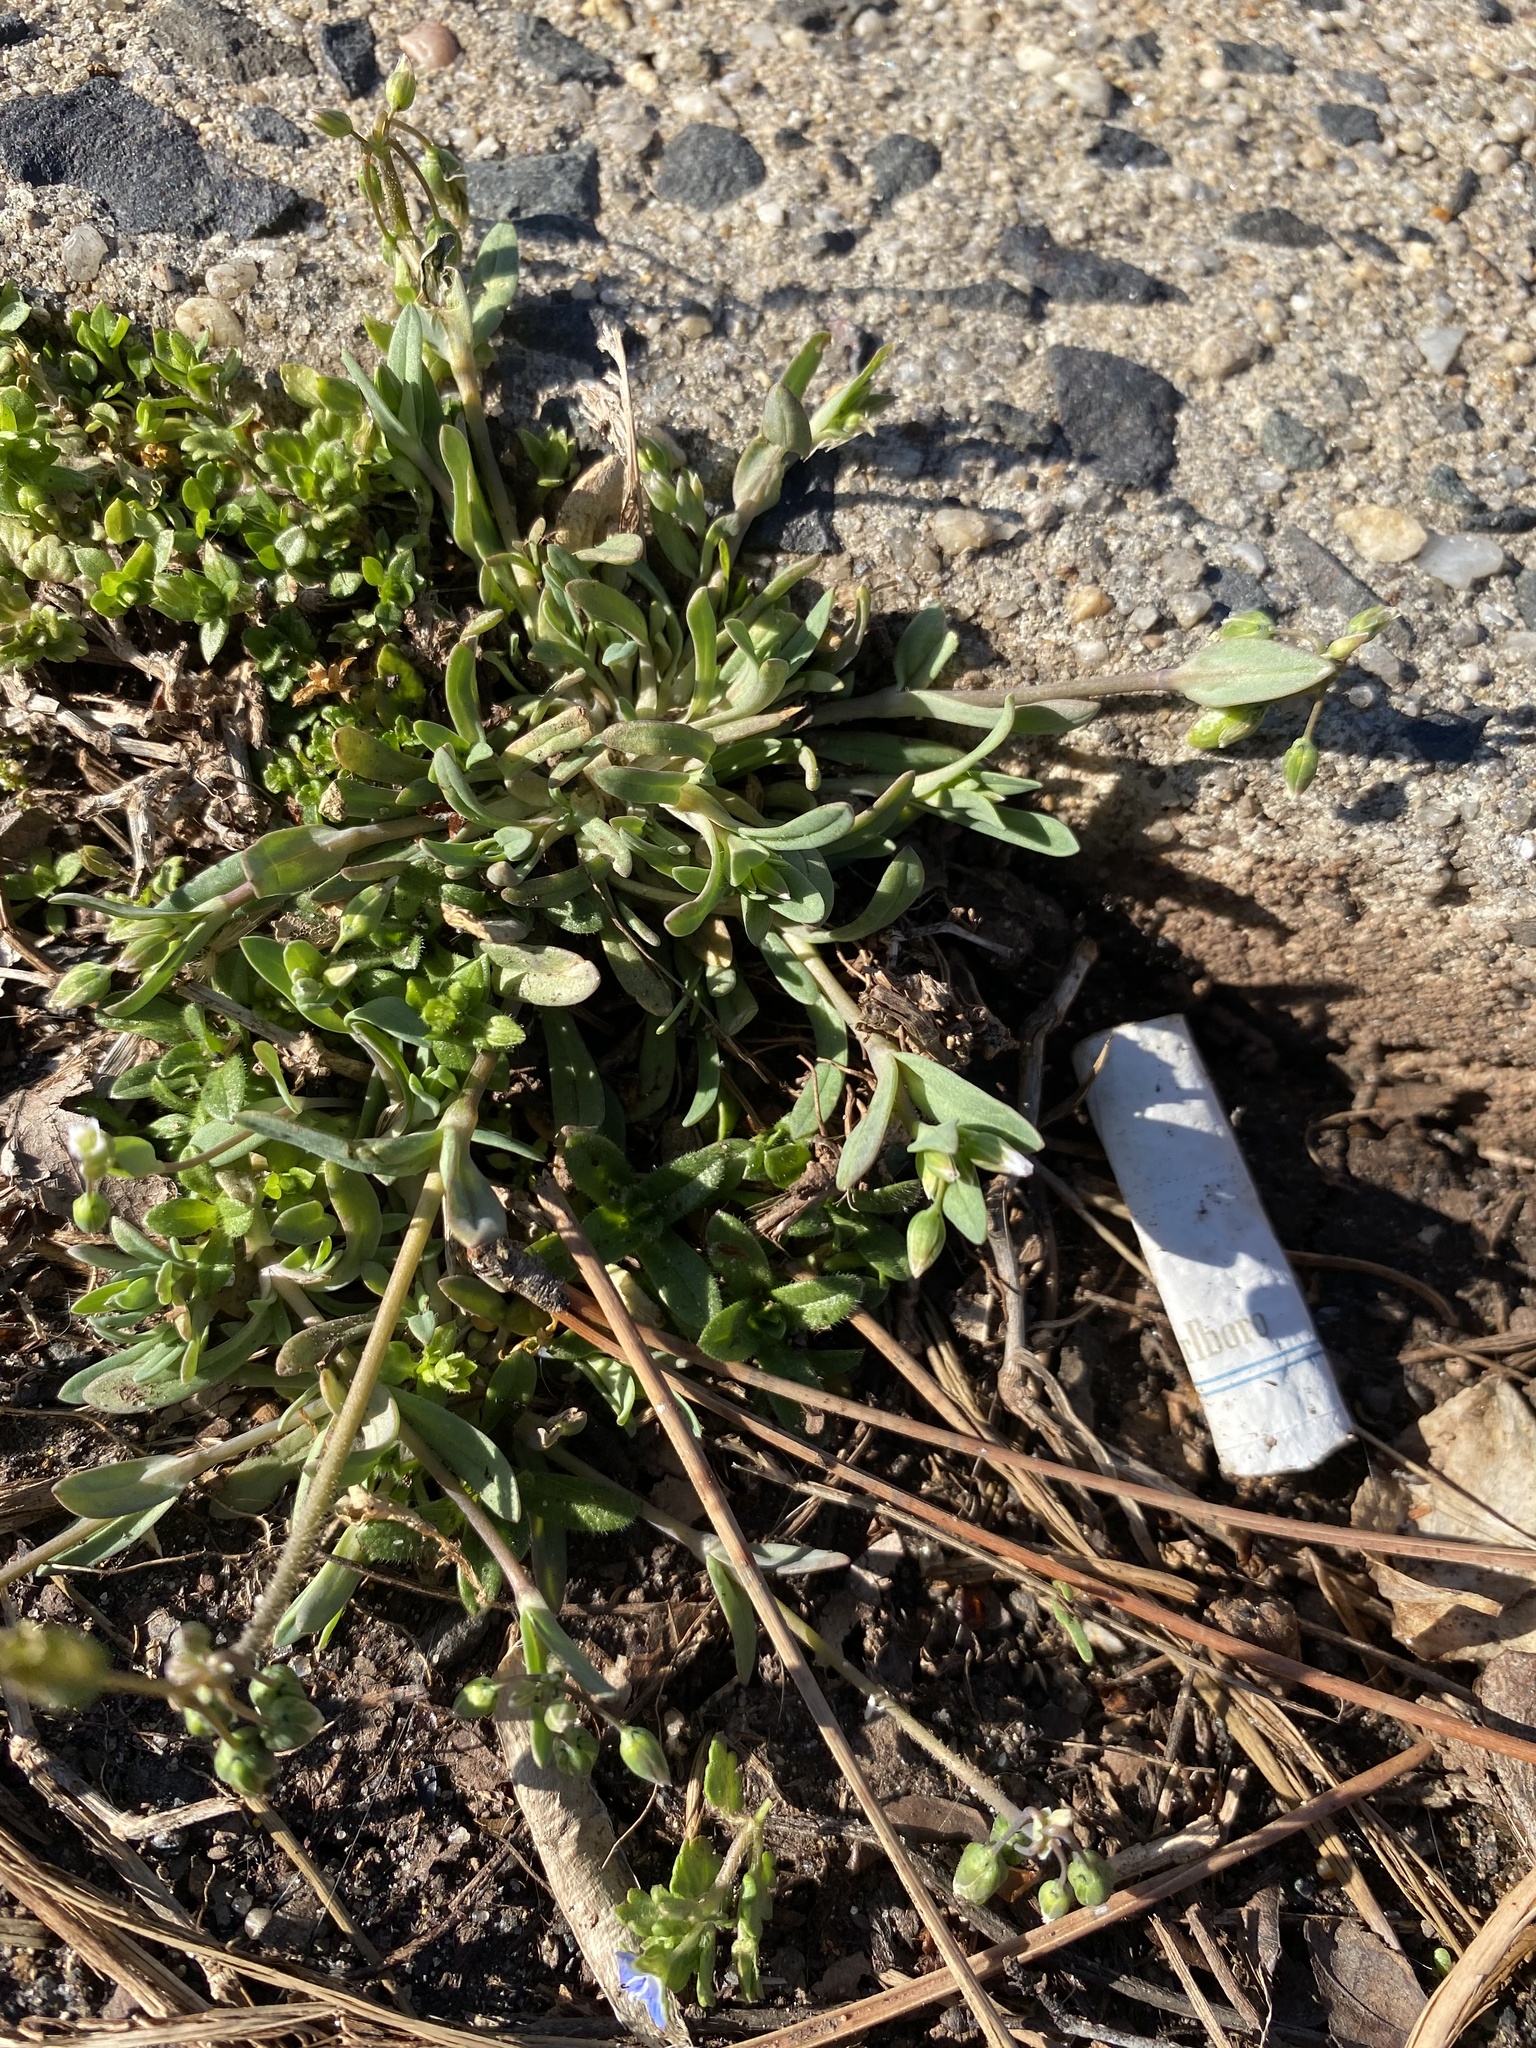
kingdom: Plantae
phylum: Tracheophyta
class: Magnoliopsida
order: Caryophyllales
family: Caryophyllaceae
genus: Holosteum
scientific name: Holosteum umbellatum
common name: Jagged chickweed
